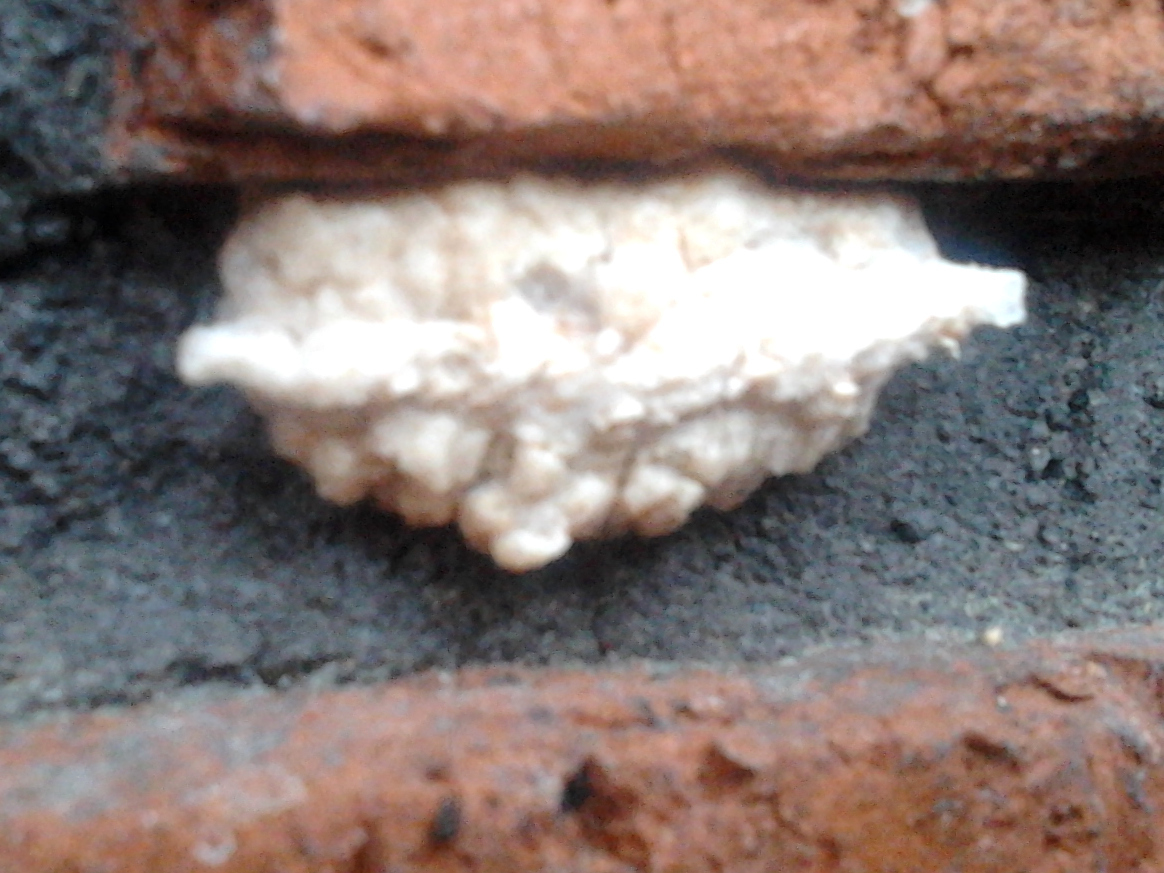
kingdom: Animalia
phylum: Arthropoda
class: Insecta
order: Mantodea
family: Miomantidae
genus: Miomantis
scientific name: Miomantis caffra
